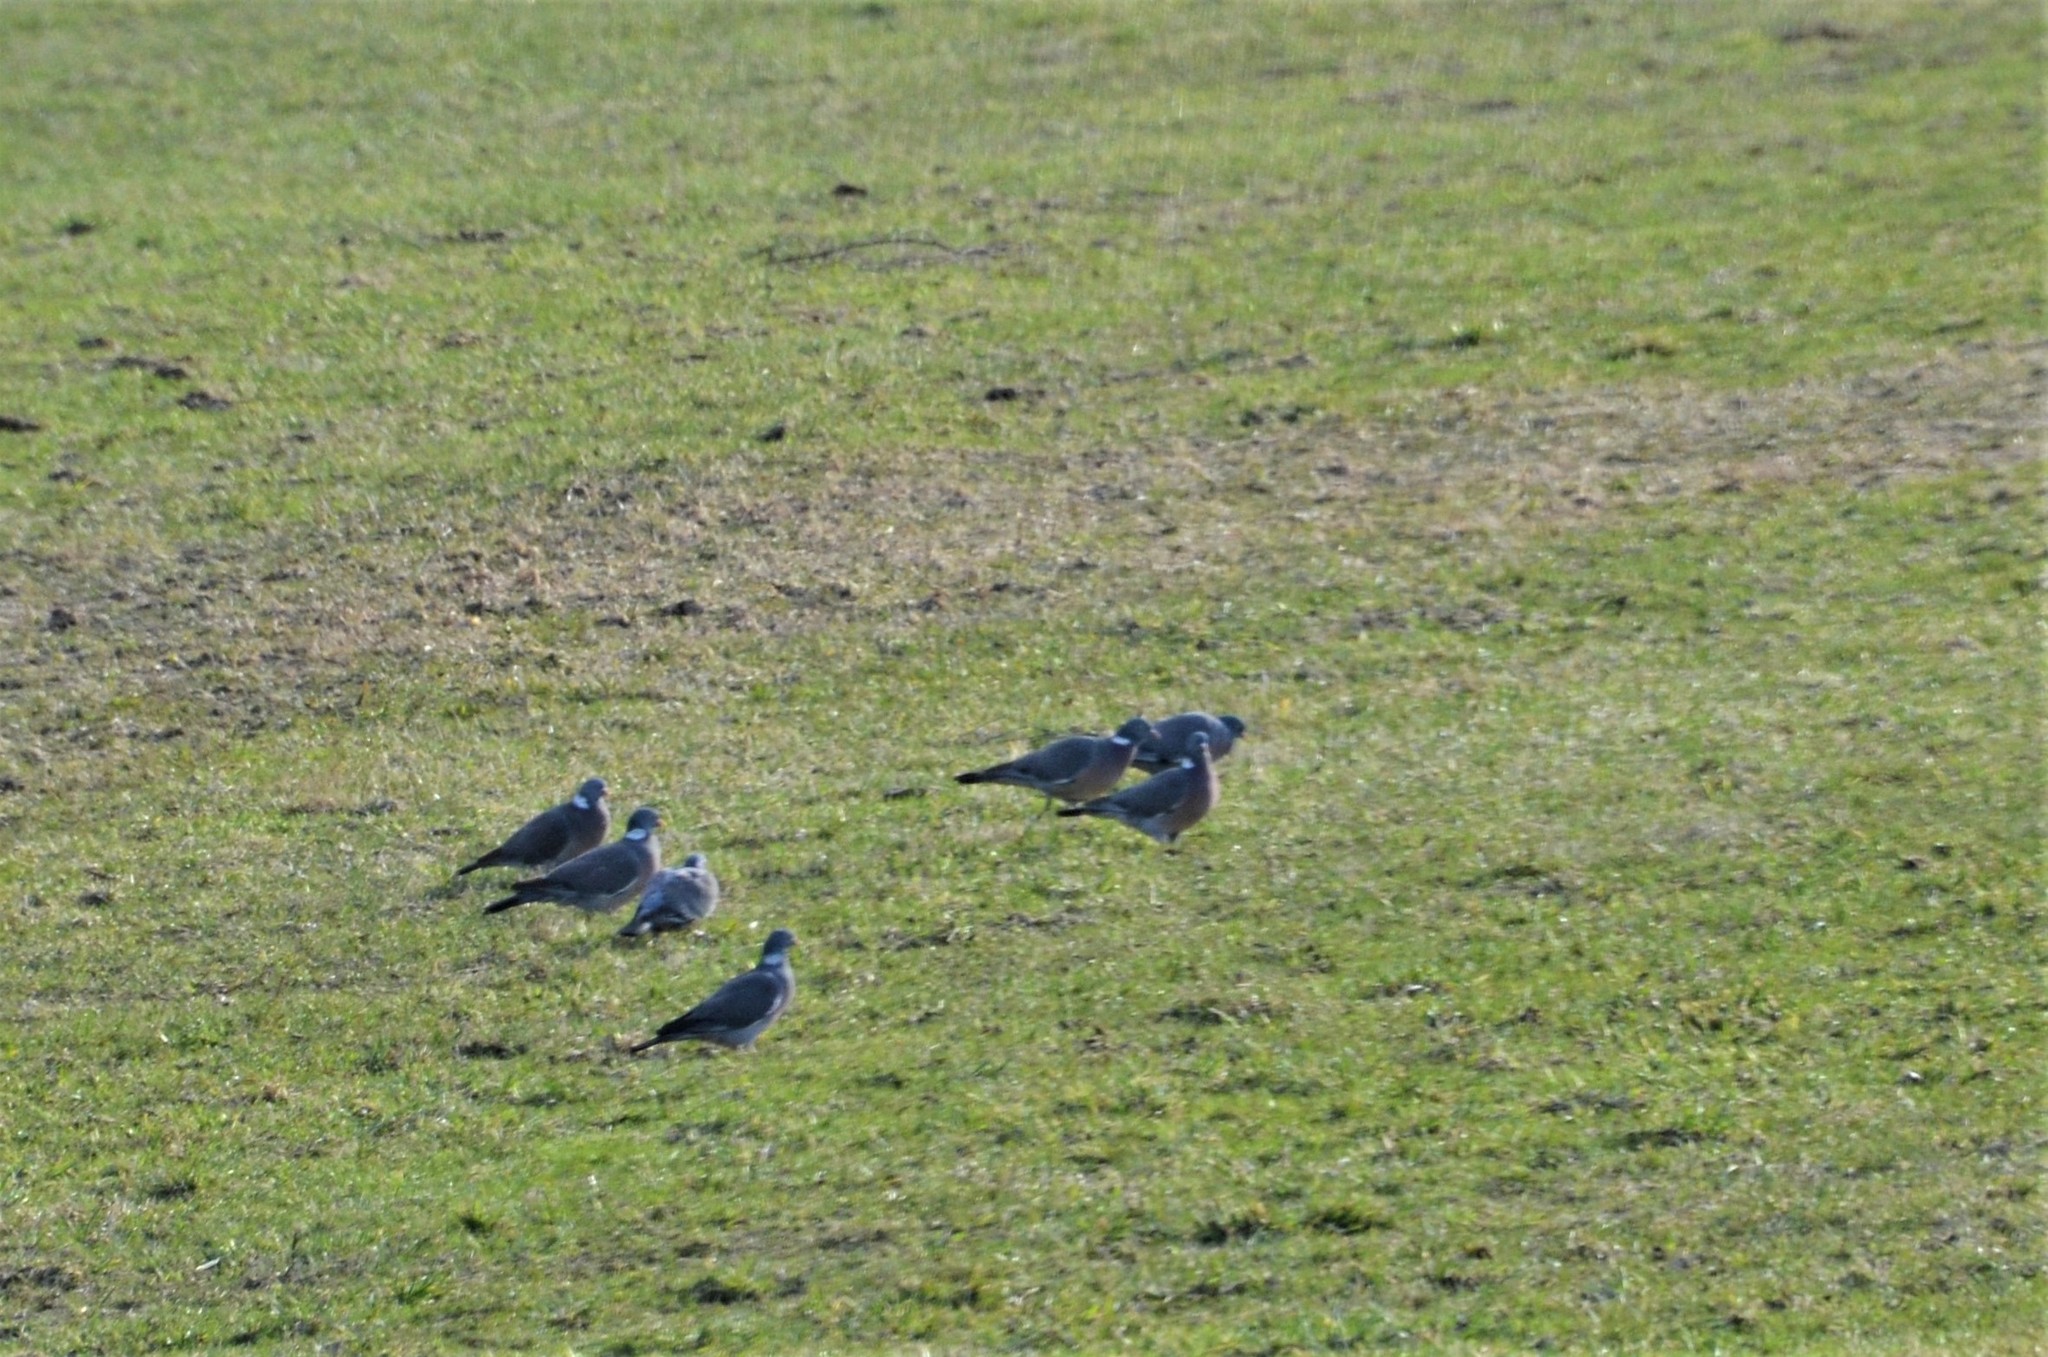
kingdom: Animalia
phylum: Chordata
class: Aves
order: Columbiformes
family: Columbidae
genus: Columba
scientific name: Columba palumbus
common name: Common wood pigeon
